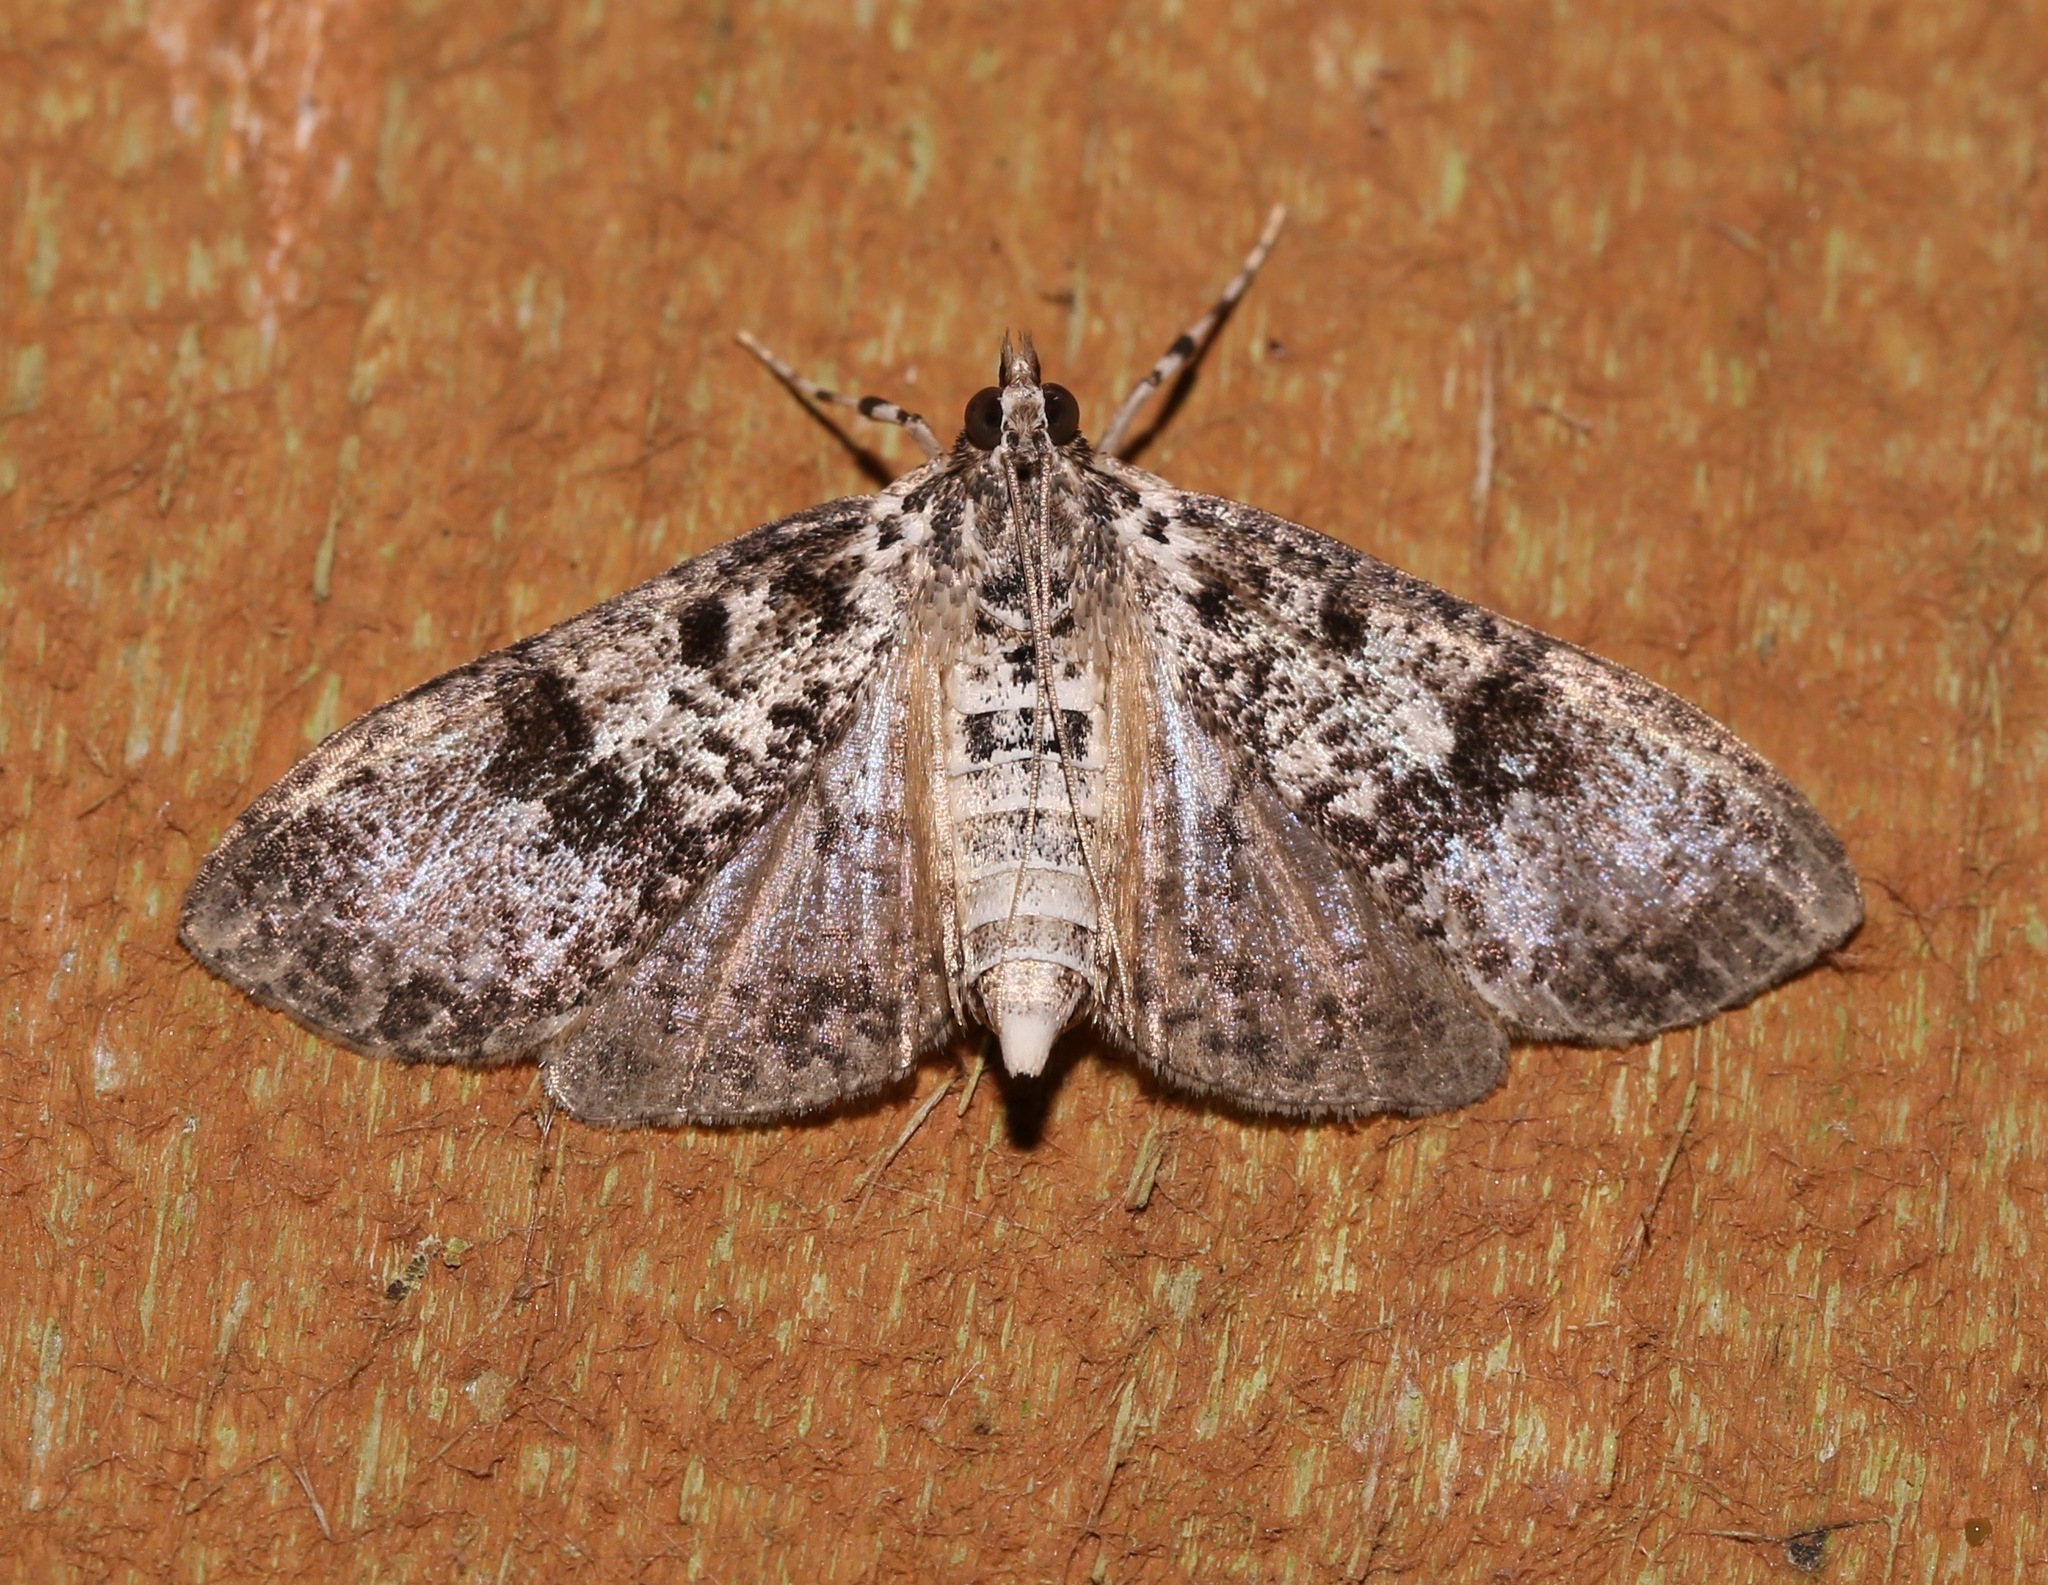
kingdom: Animalia
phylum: Arthropoda
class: Insecta
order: Lepidoptera
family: Crambidae
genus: Palpita
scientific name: Palpita magniferalis
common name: Splendid palpita moth
